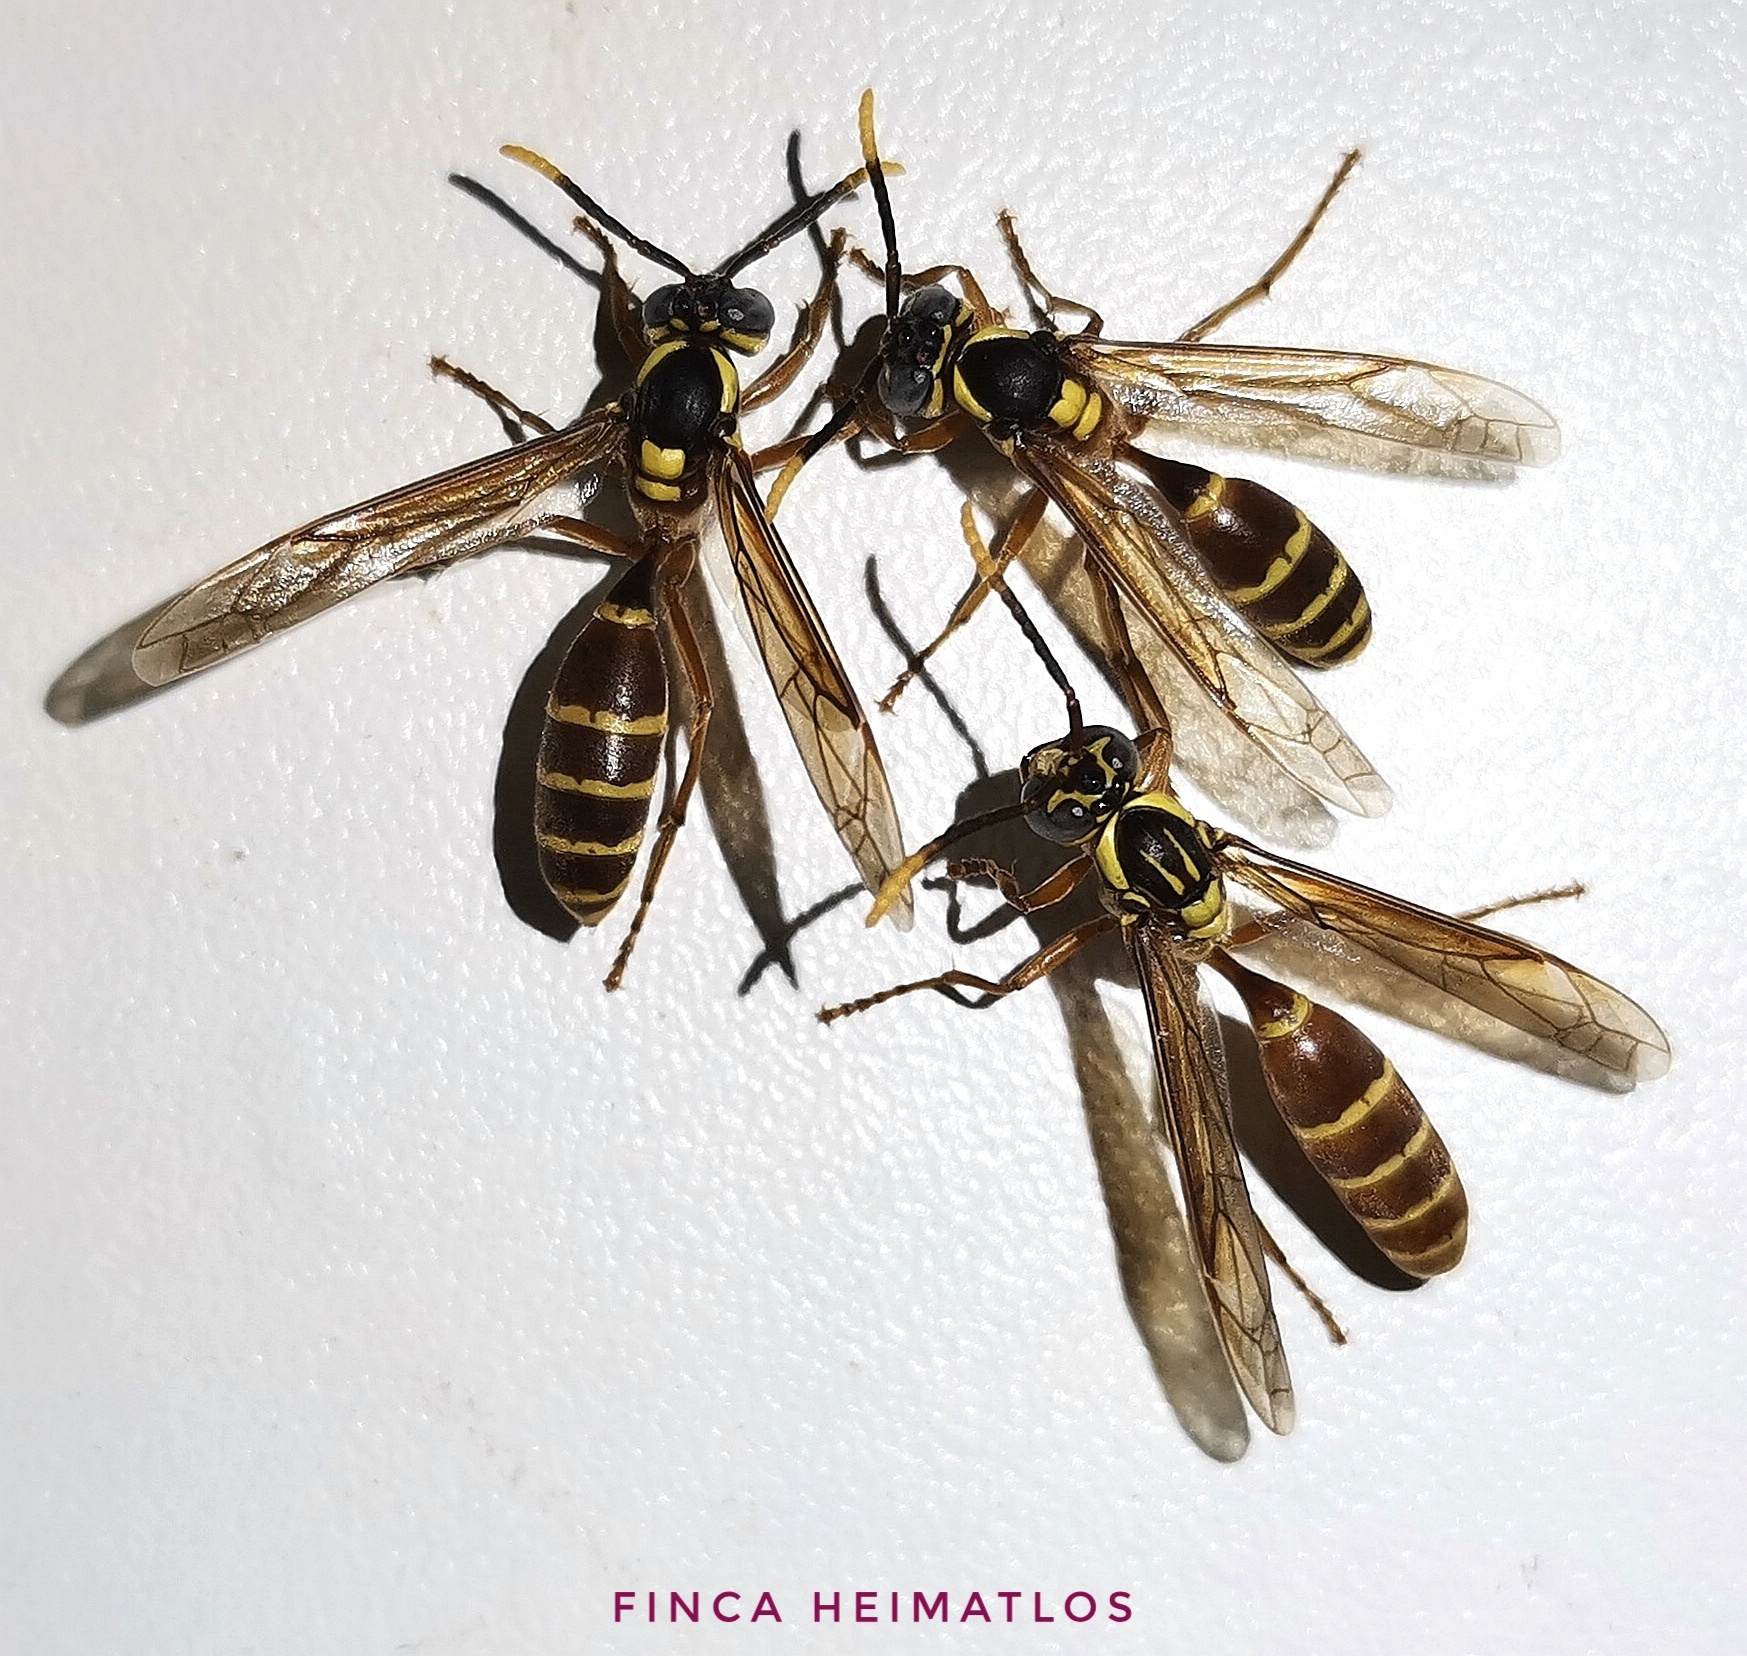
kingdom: Animalia
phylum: Arthropoda
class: Insecta
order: Hymenoptera
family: Vespidae
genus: Apoica
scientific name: Apoica arborea
